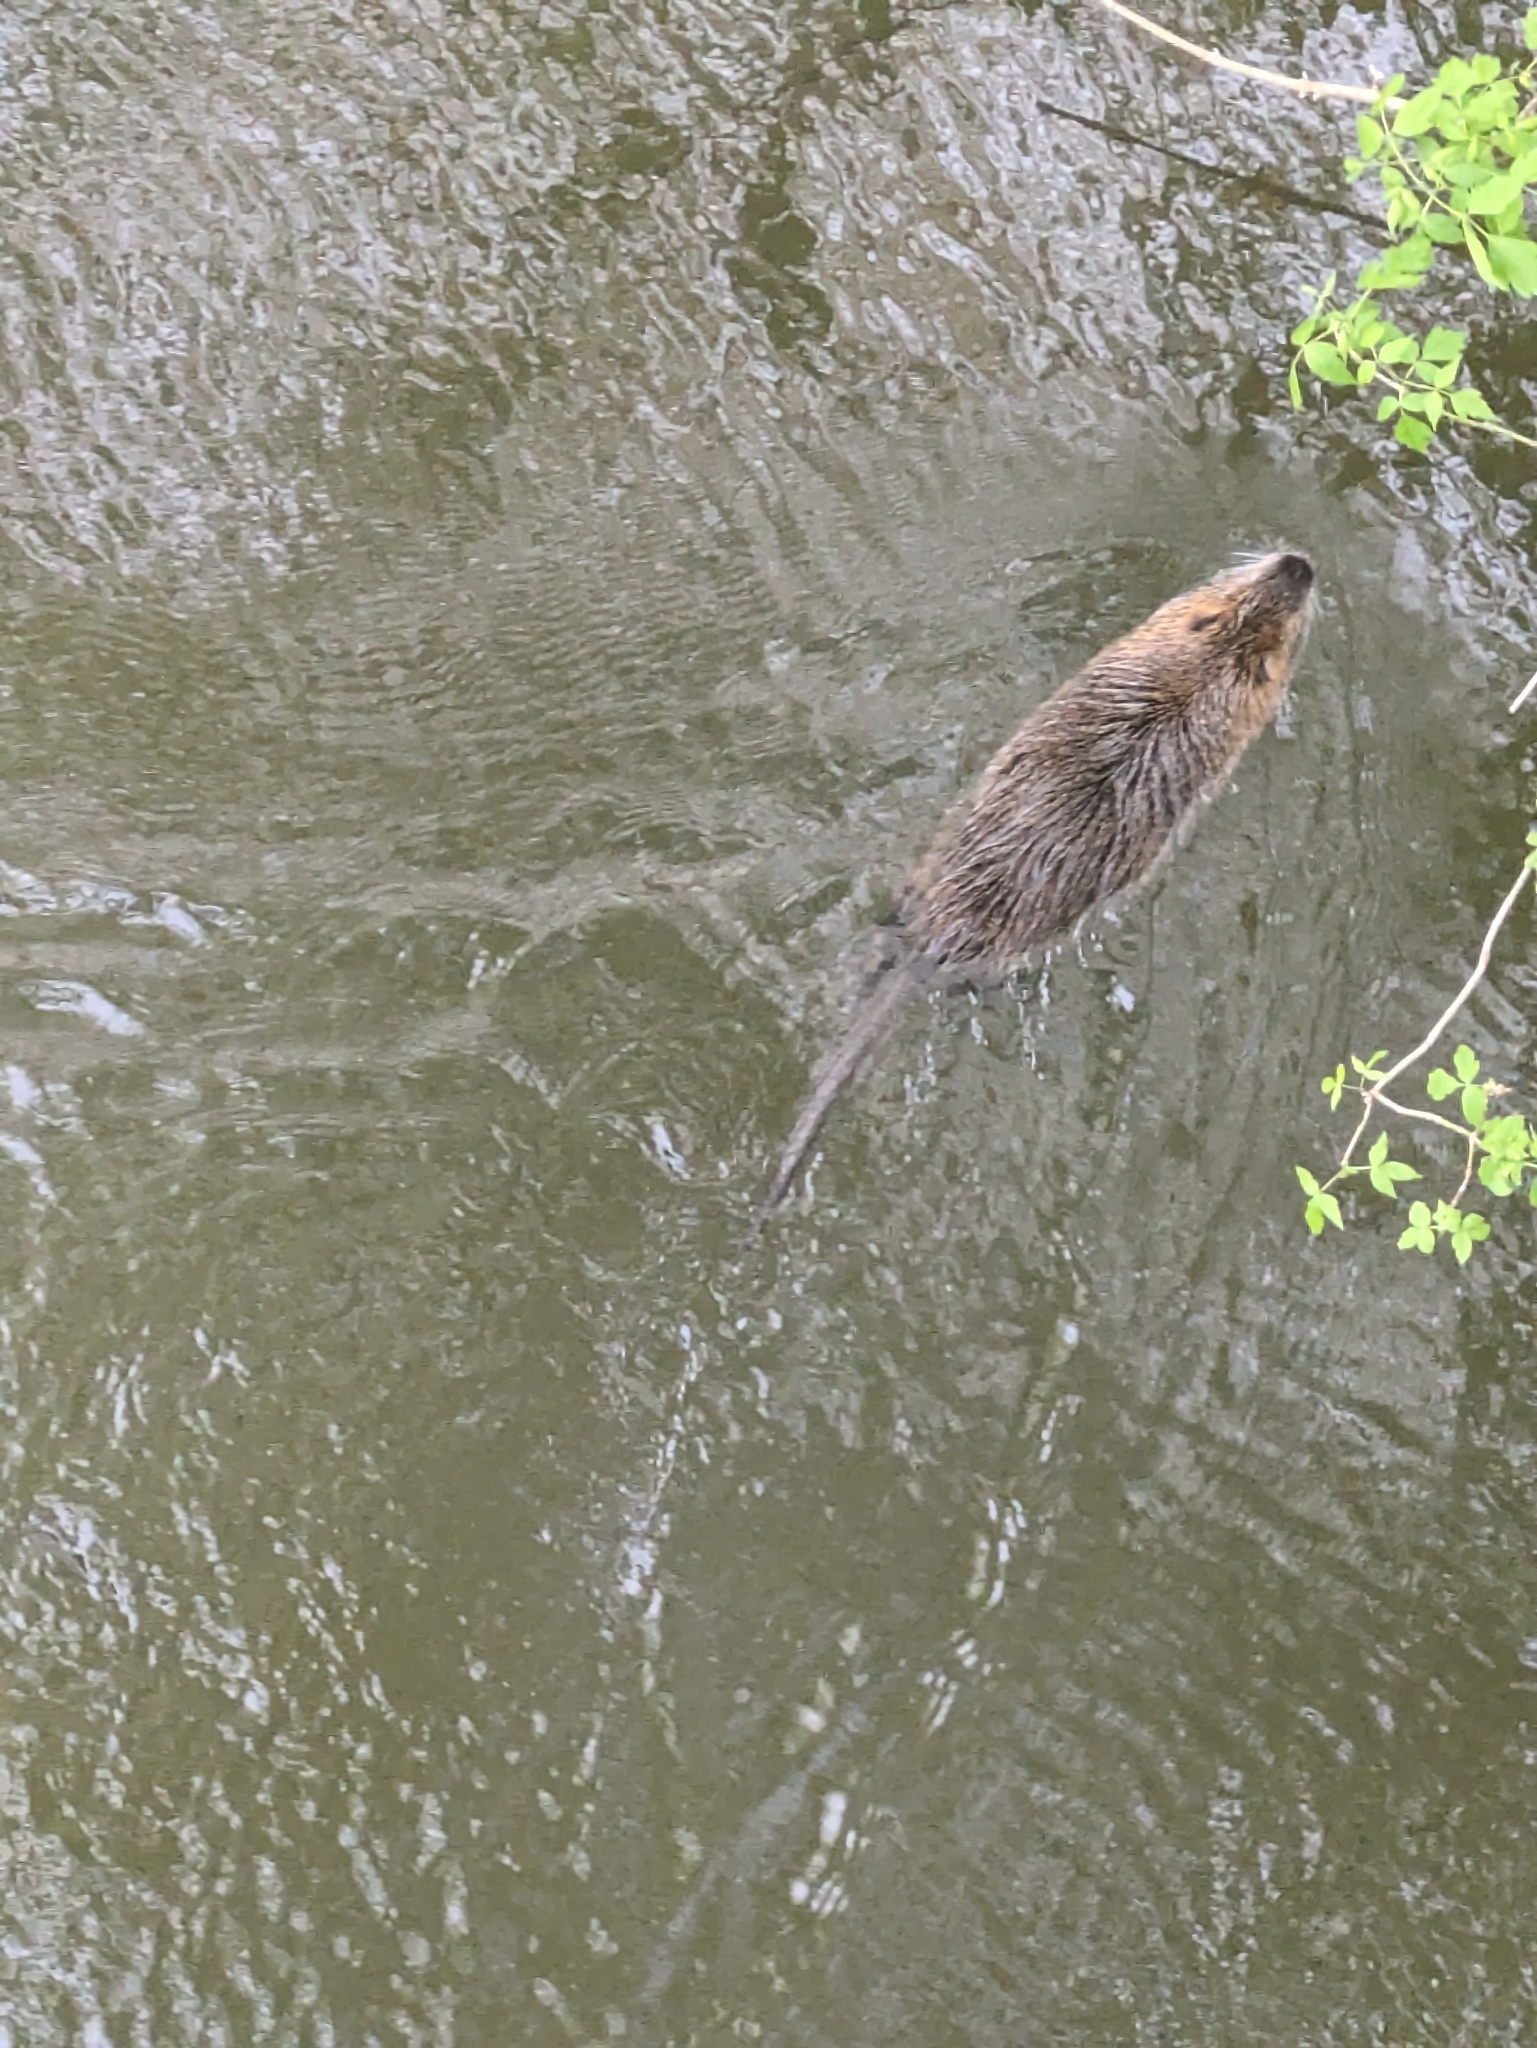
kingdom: Animalia
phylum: Chordata
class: Mammalia
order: Rodentia
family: Myocastoridae
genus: Myocastor
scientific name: Myocastor coypus
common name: Coypu
